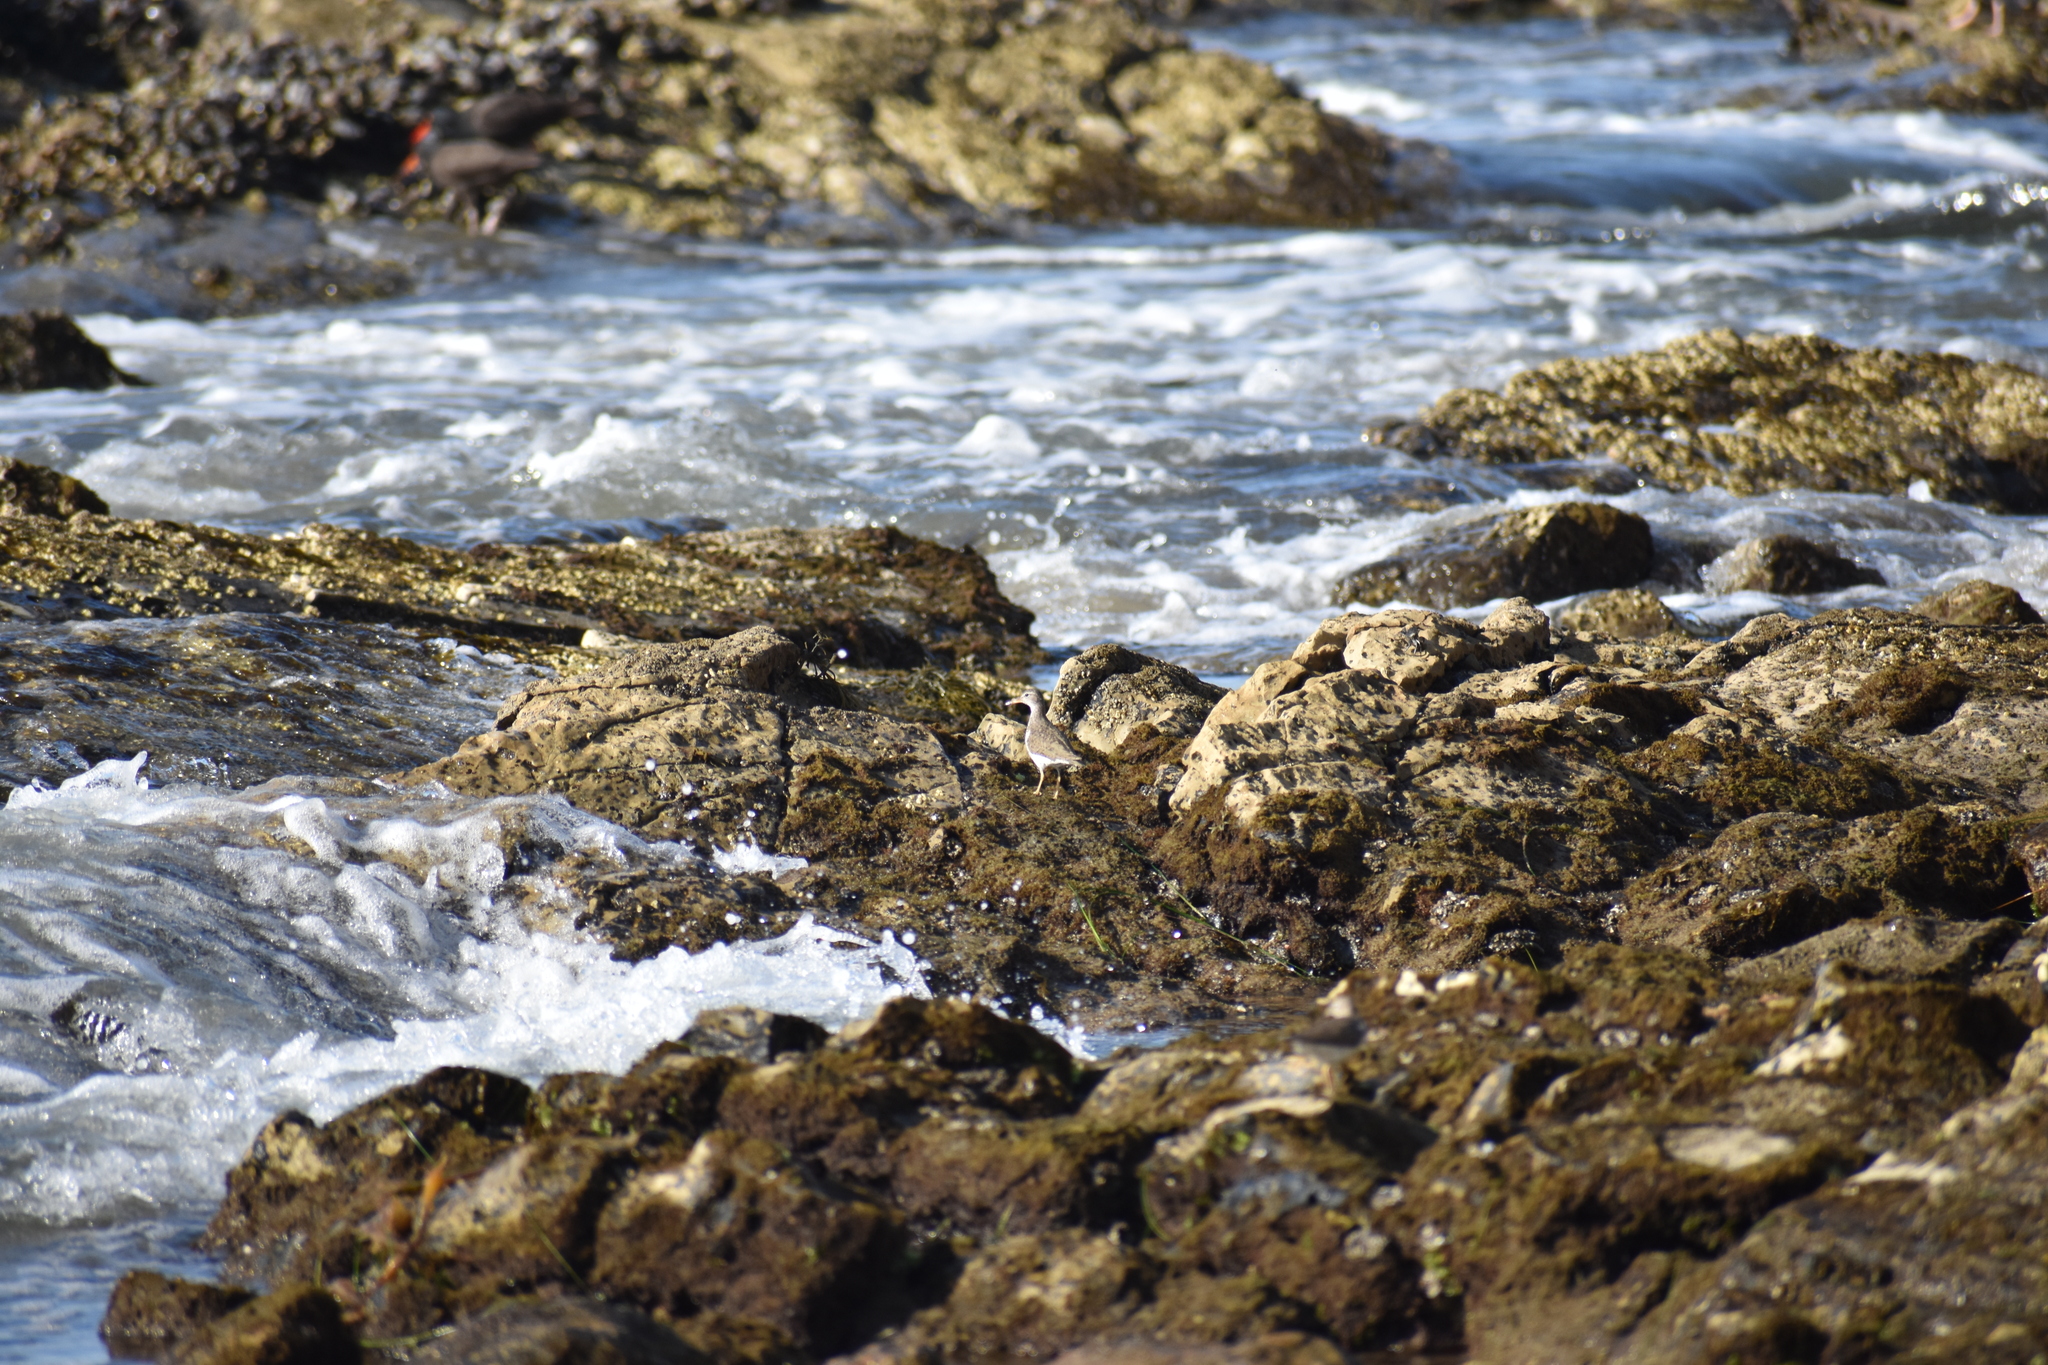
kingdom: Animalia
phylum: Chordata
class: Aves
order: Charadriiformes
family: Scolopacidae
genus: Actitis
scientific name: Actitis macularius
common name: Spotted sandpiper
